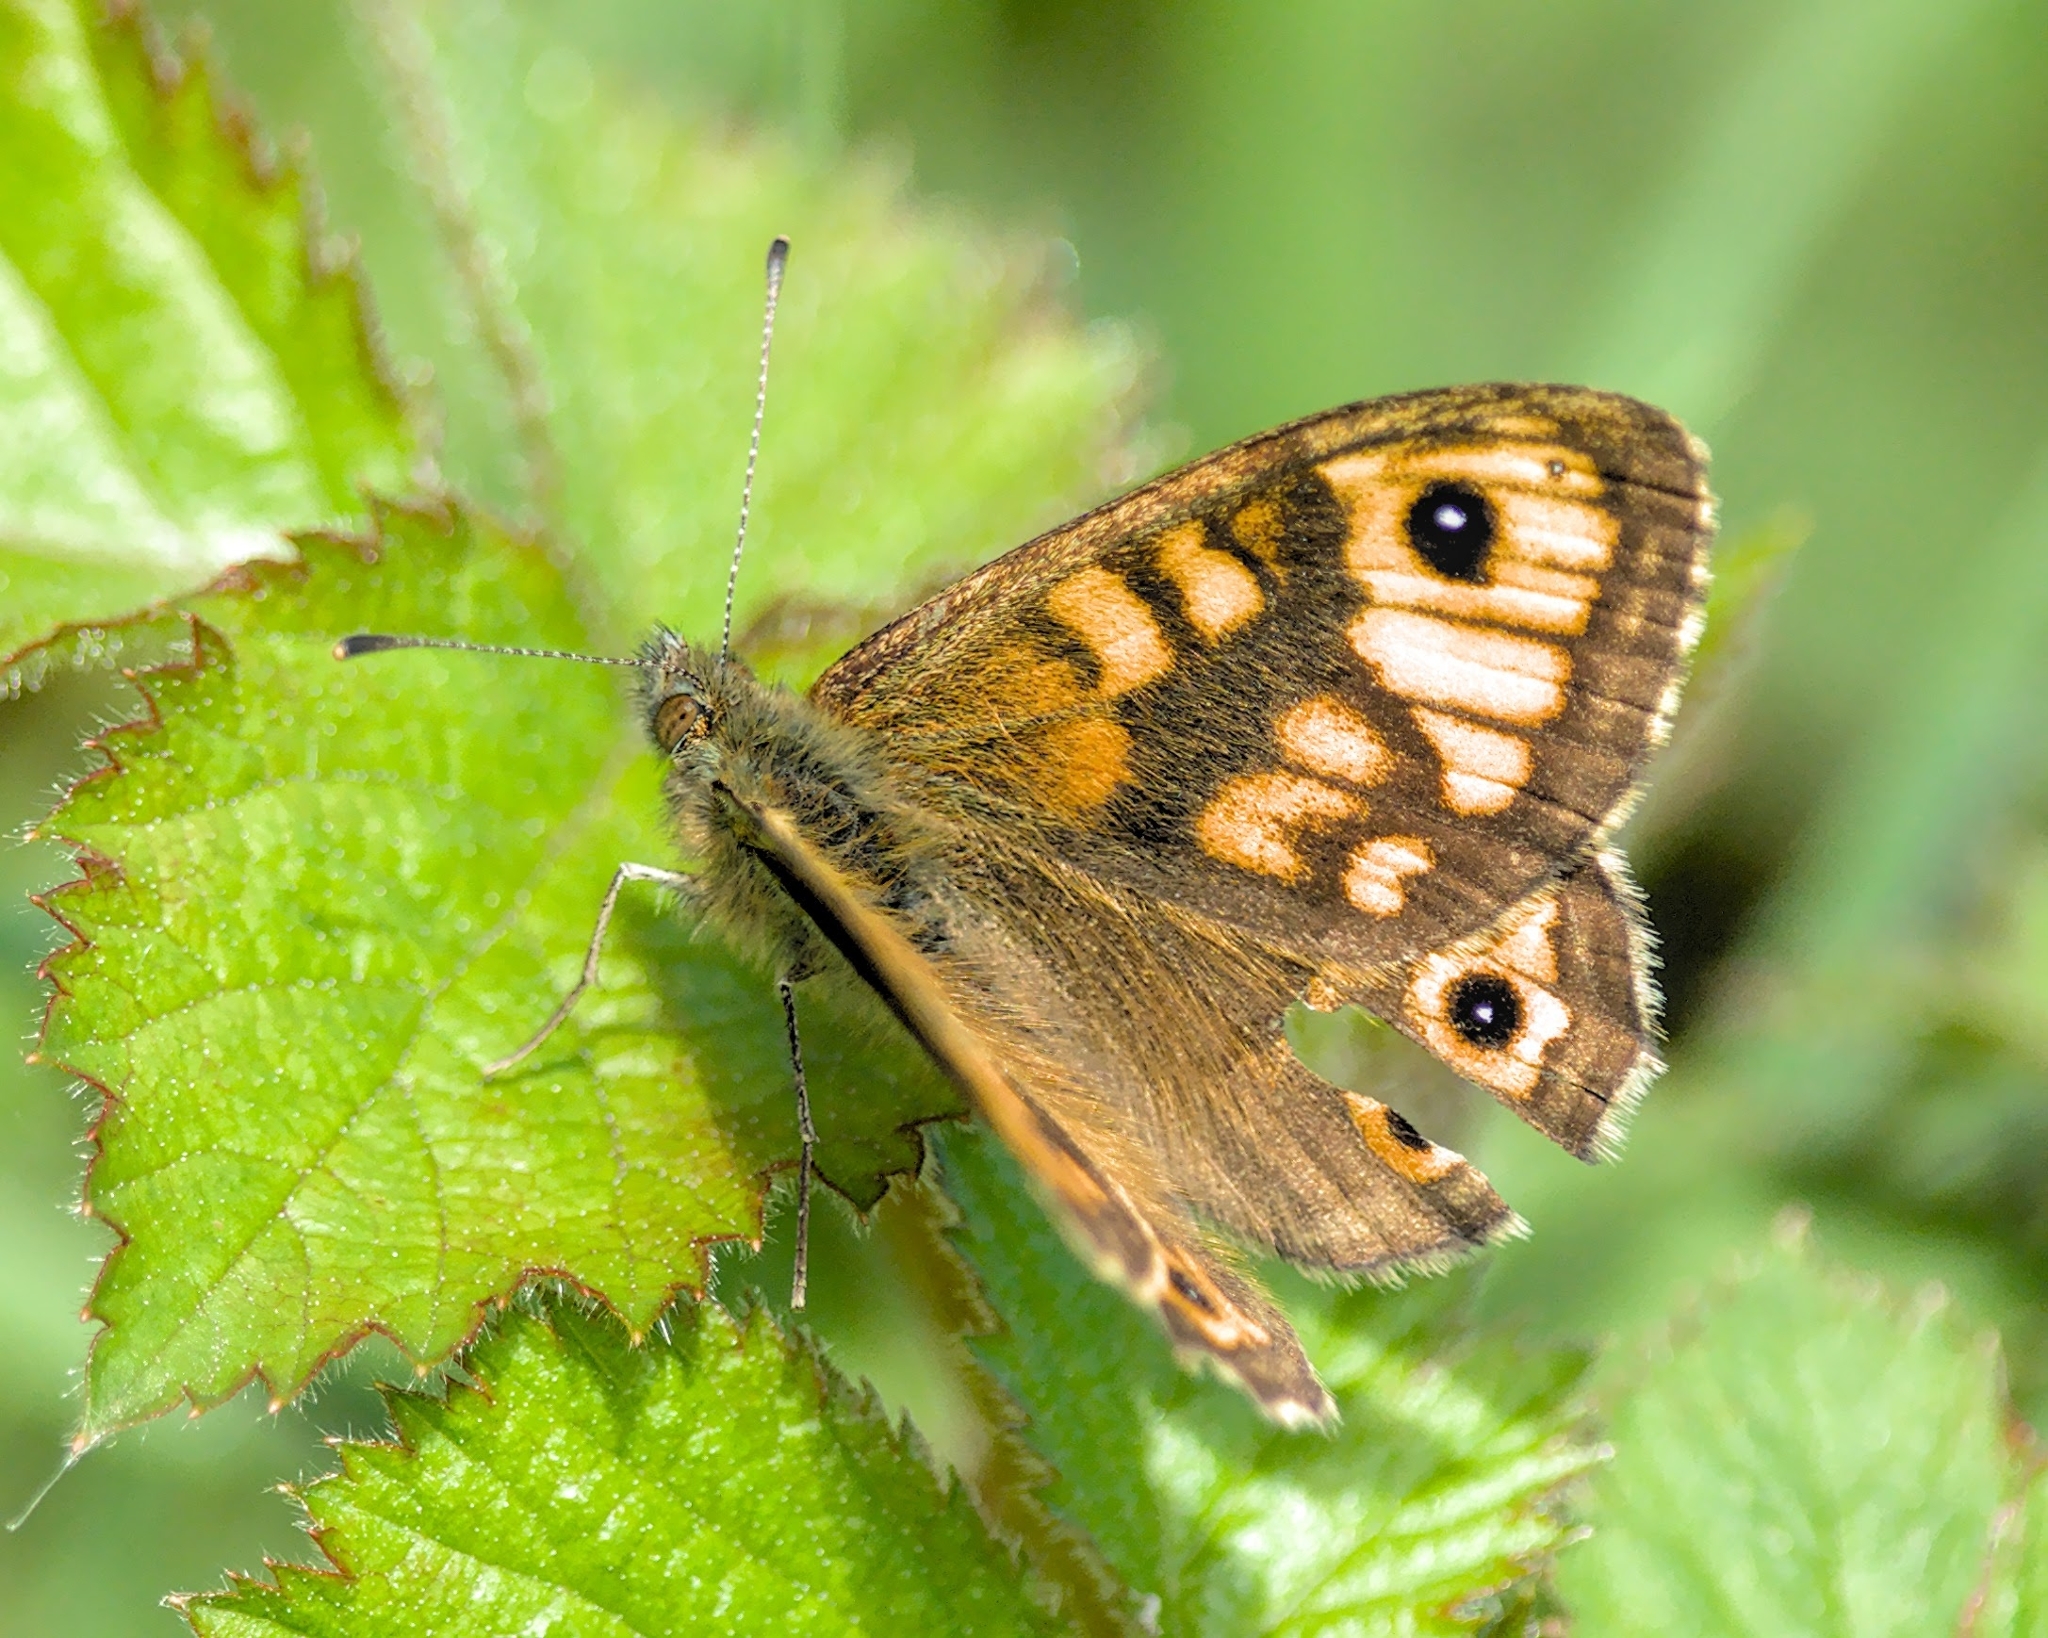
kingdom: Animalia
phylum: Arthropoda
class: Insecta
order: Lepidoptera
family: Nymphalidae
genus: Pararge
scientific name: Pararge Lasiommata megera
